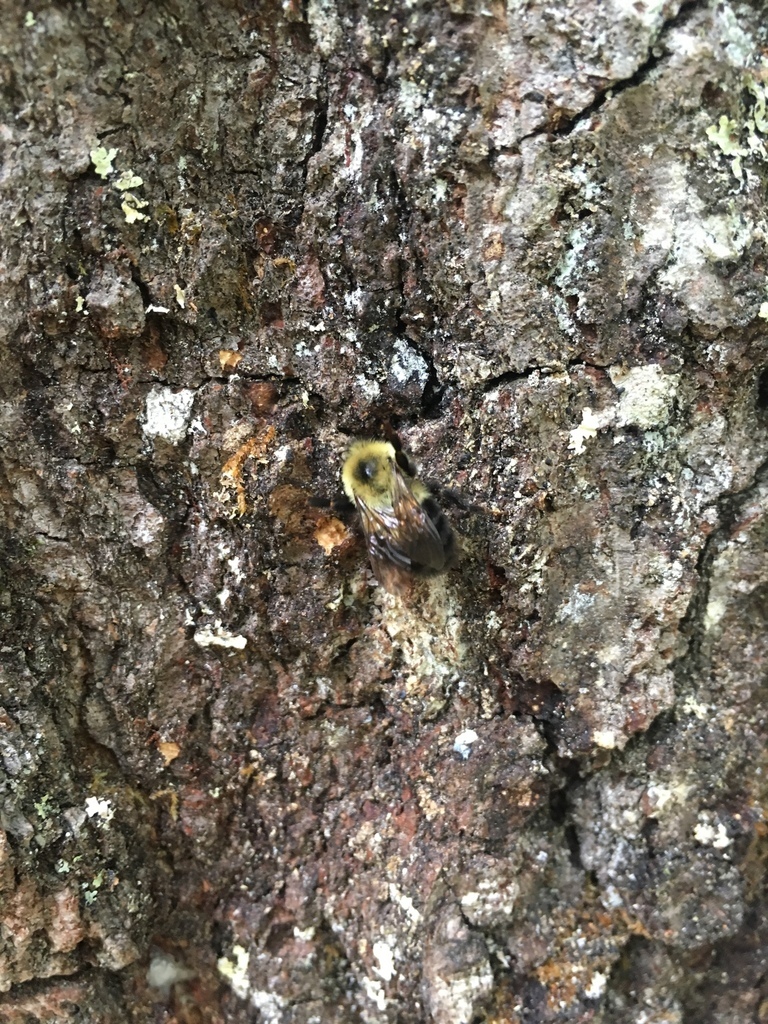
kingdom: Animalia
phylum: Arthropoda
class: Insecta
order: Hymenoptera
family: Apidae
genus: Bombus
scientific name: Bombus bimaculatus
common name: Two-spotted bumble bee
